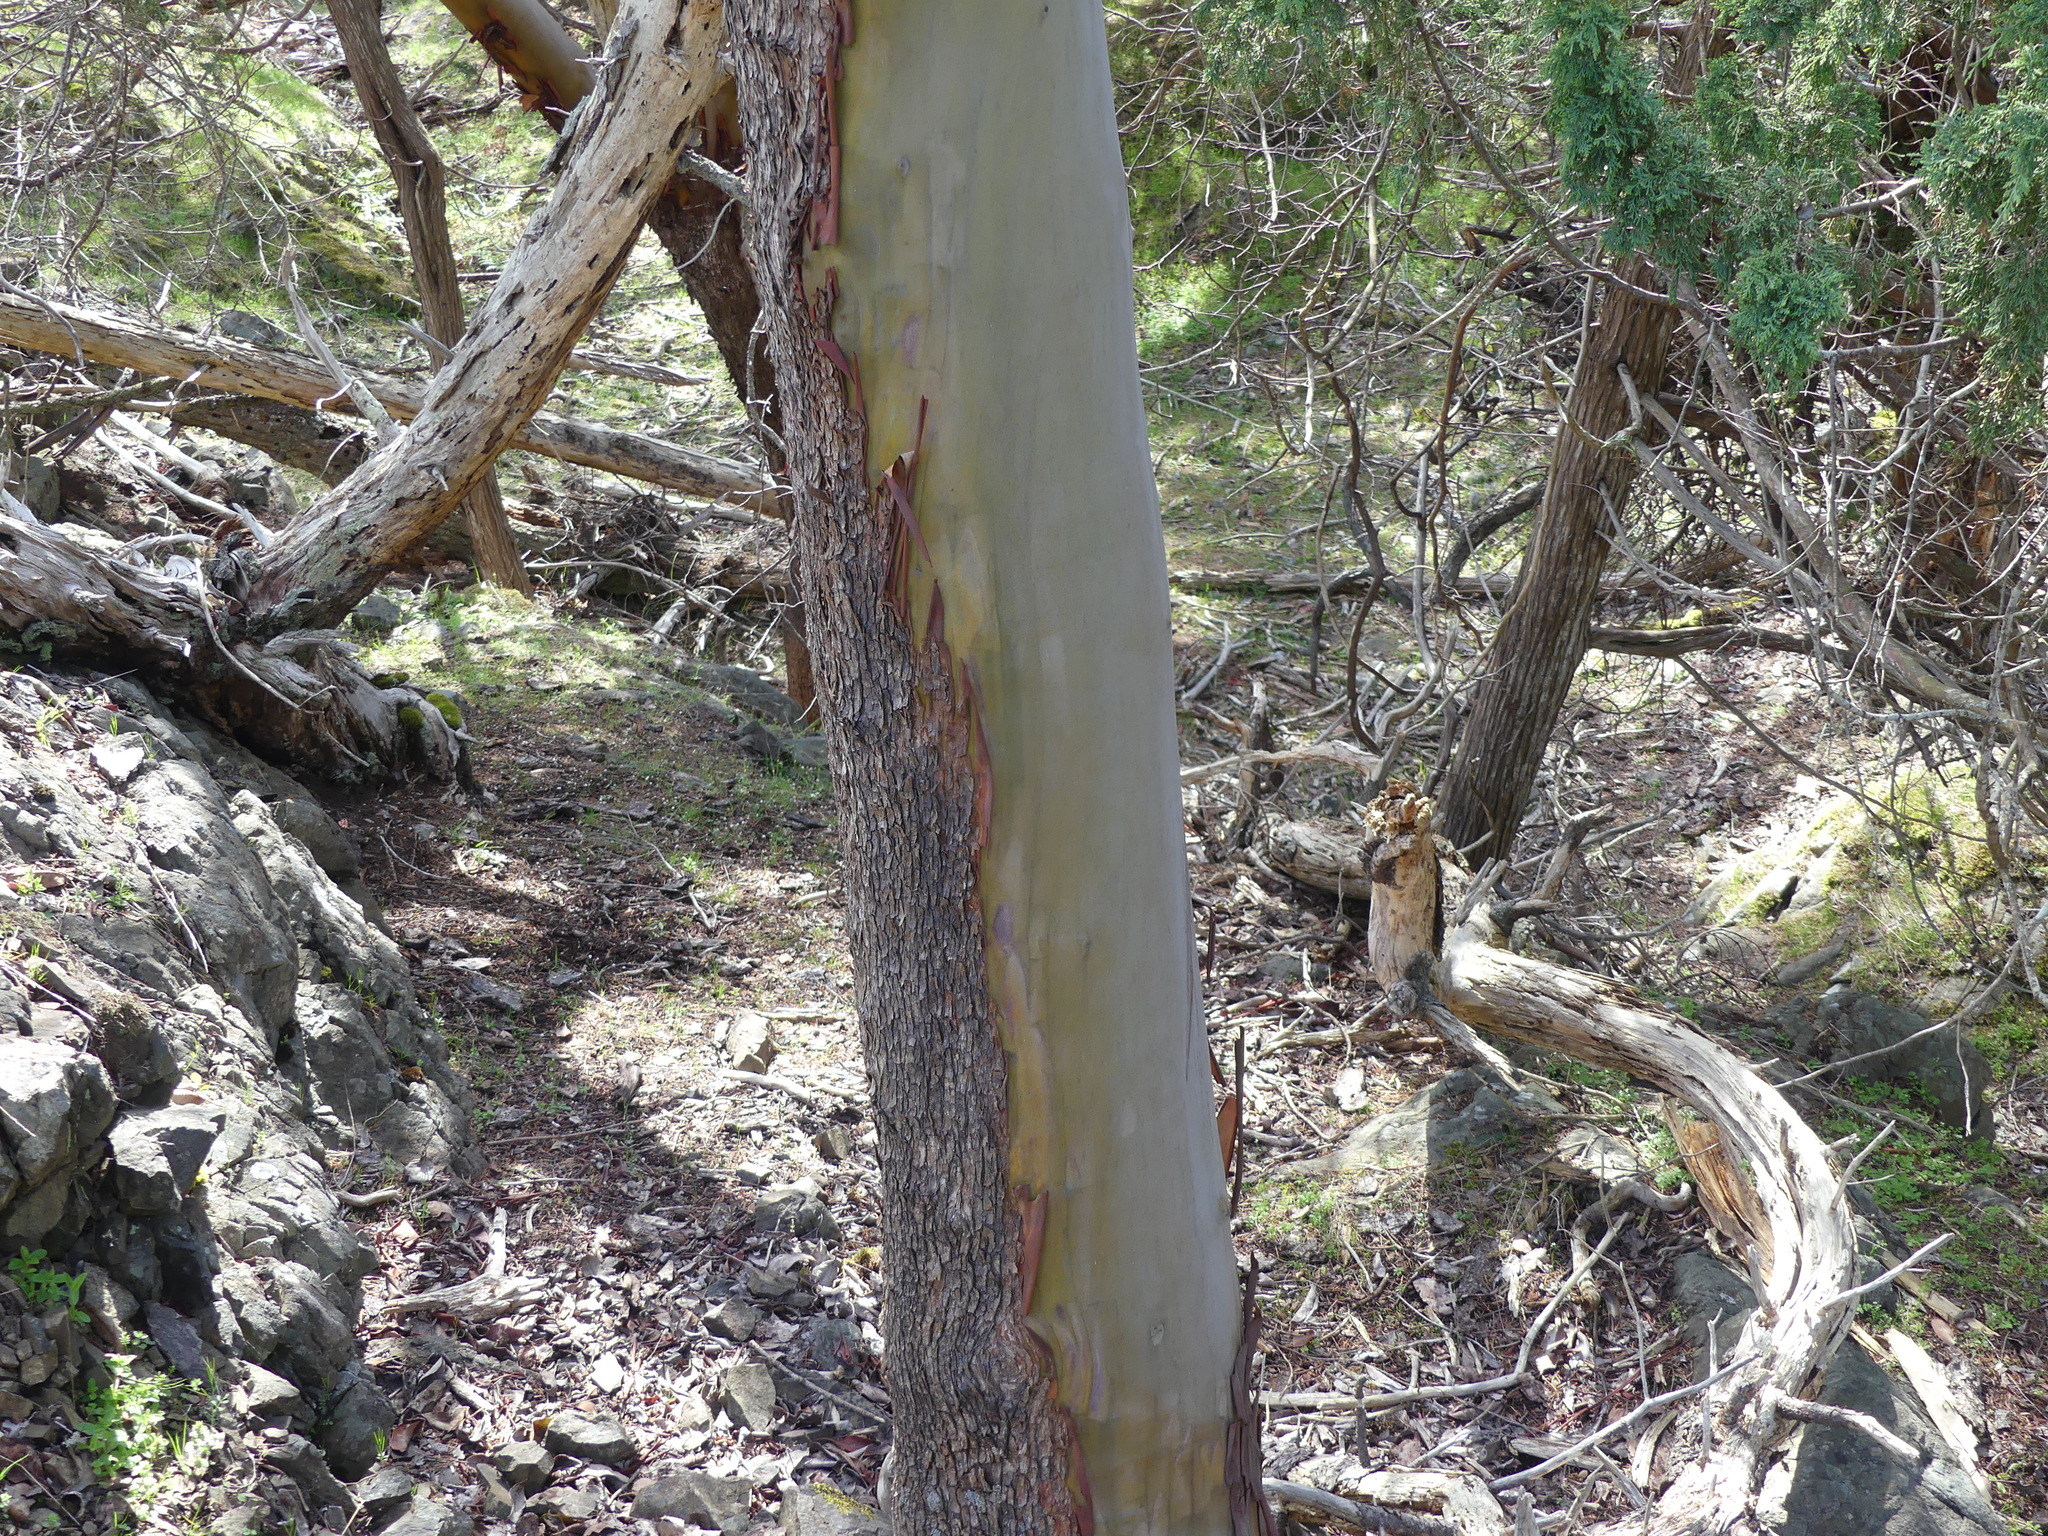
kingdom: Plantae
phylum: Tracheophyta
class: Magnoliopsida
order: Ericales
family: Ericaceae
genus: Arbutus
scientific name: Arbutus menziesii
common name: Pacific madrone
